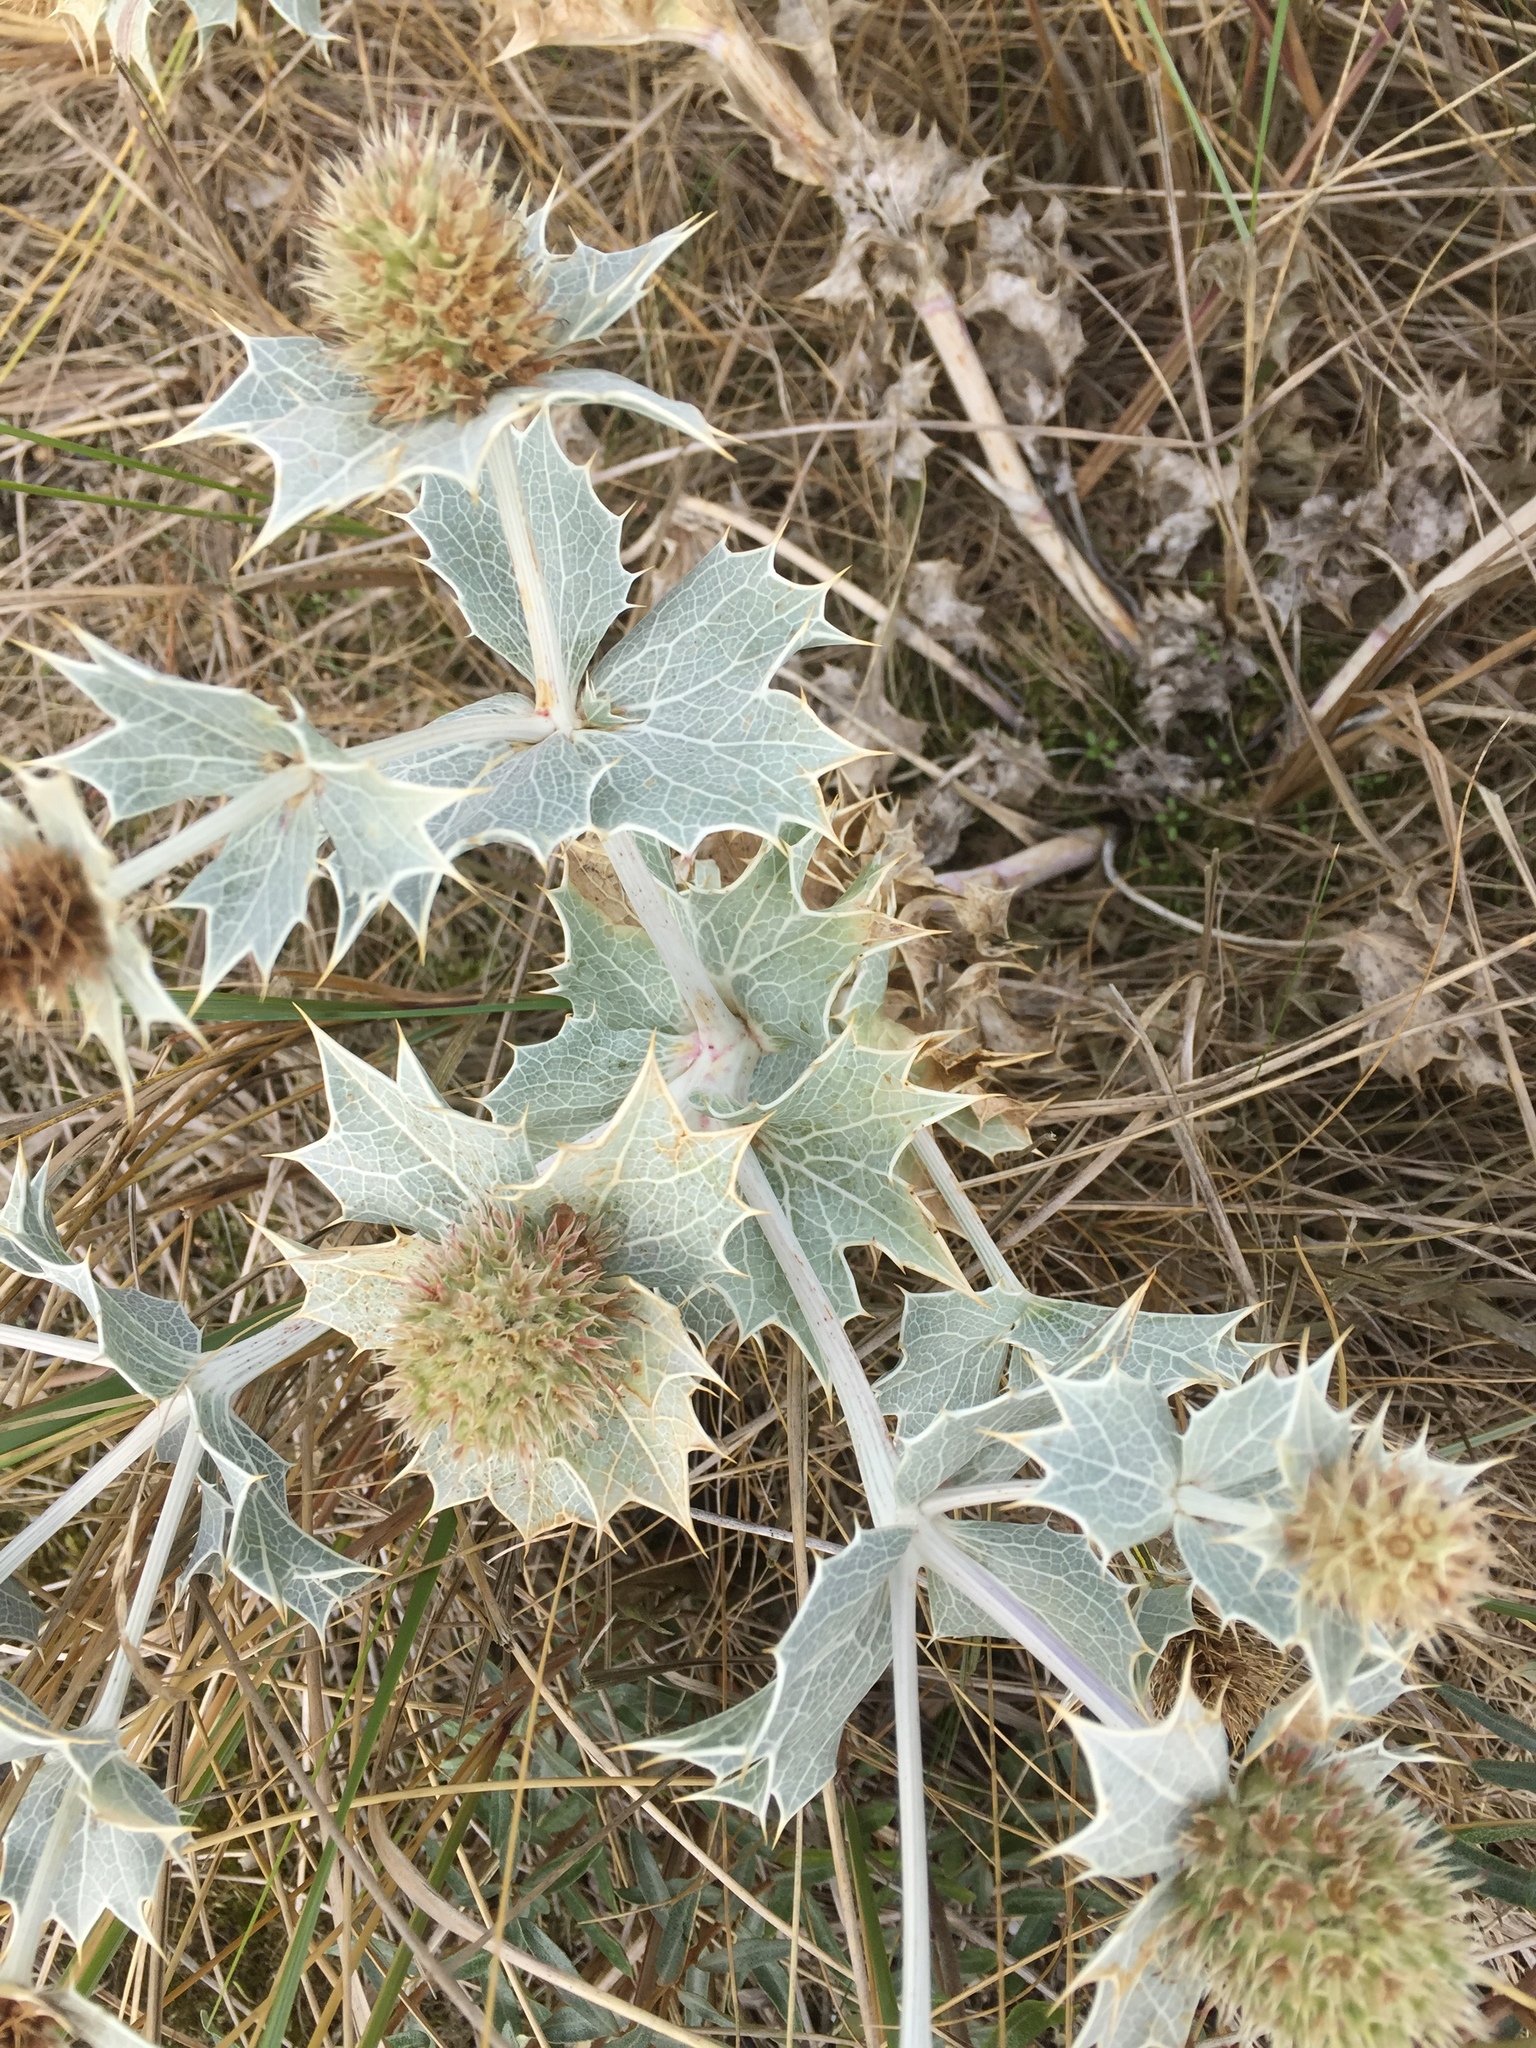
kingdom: Plantae
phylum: Tracheophyta
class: Magnoliopsida
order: Apiales
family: Apiaceae
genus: Eryngium
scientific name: Eryngium maritimum
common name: Sea-holly
